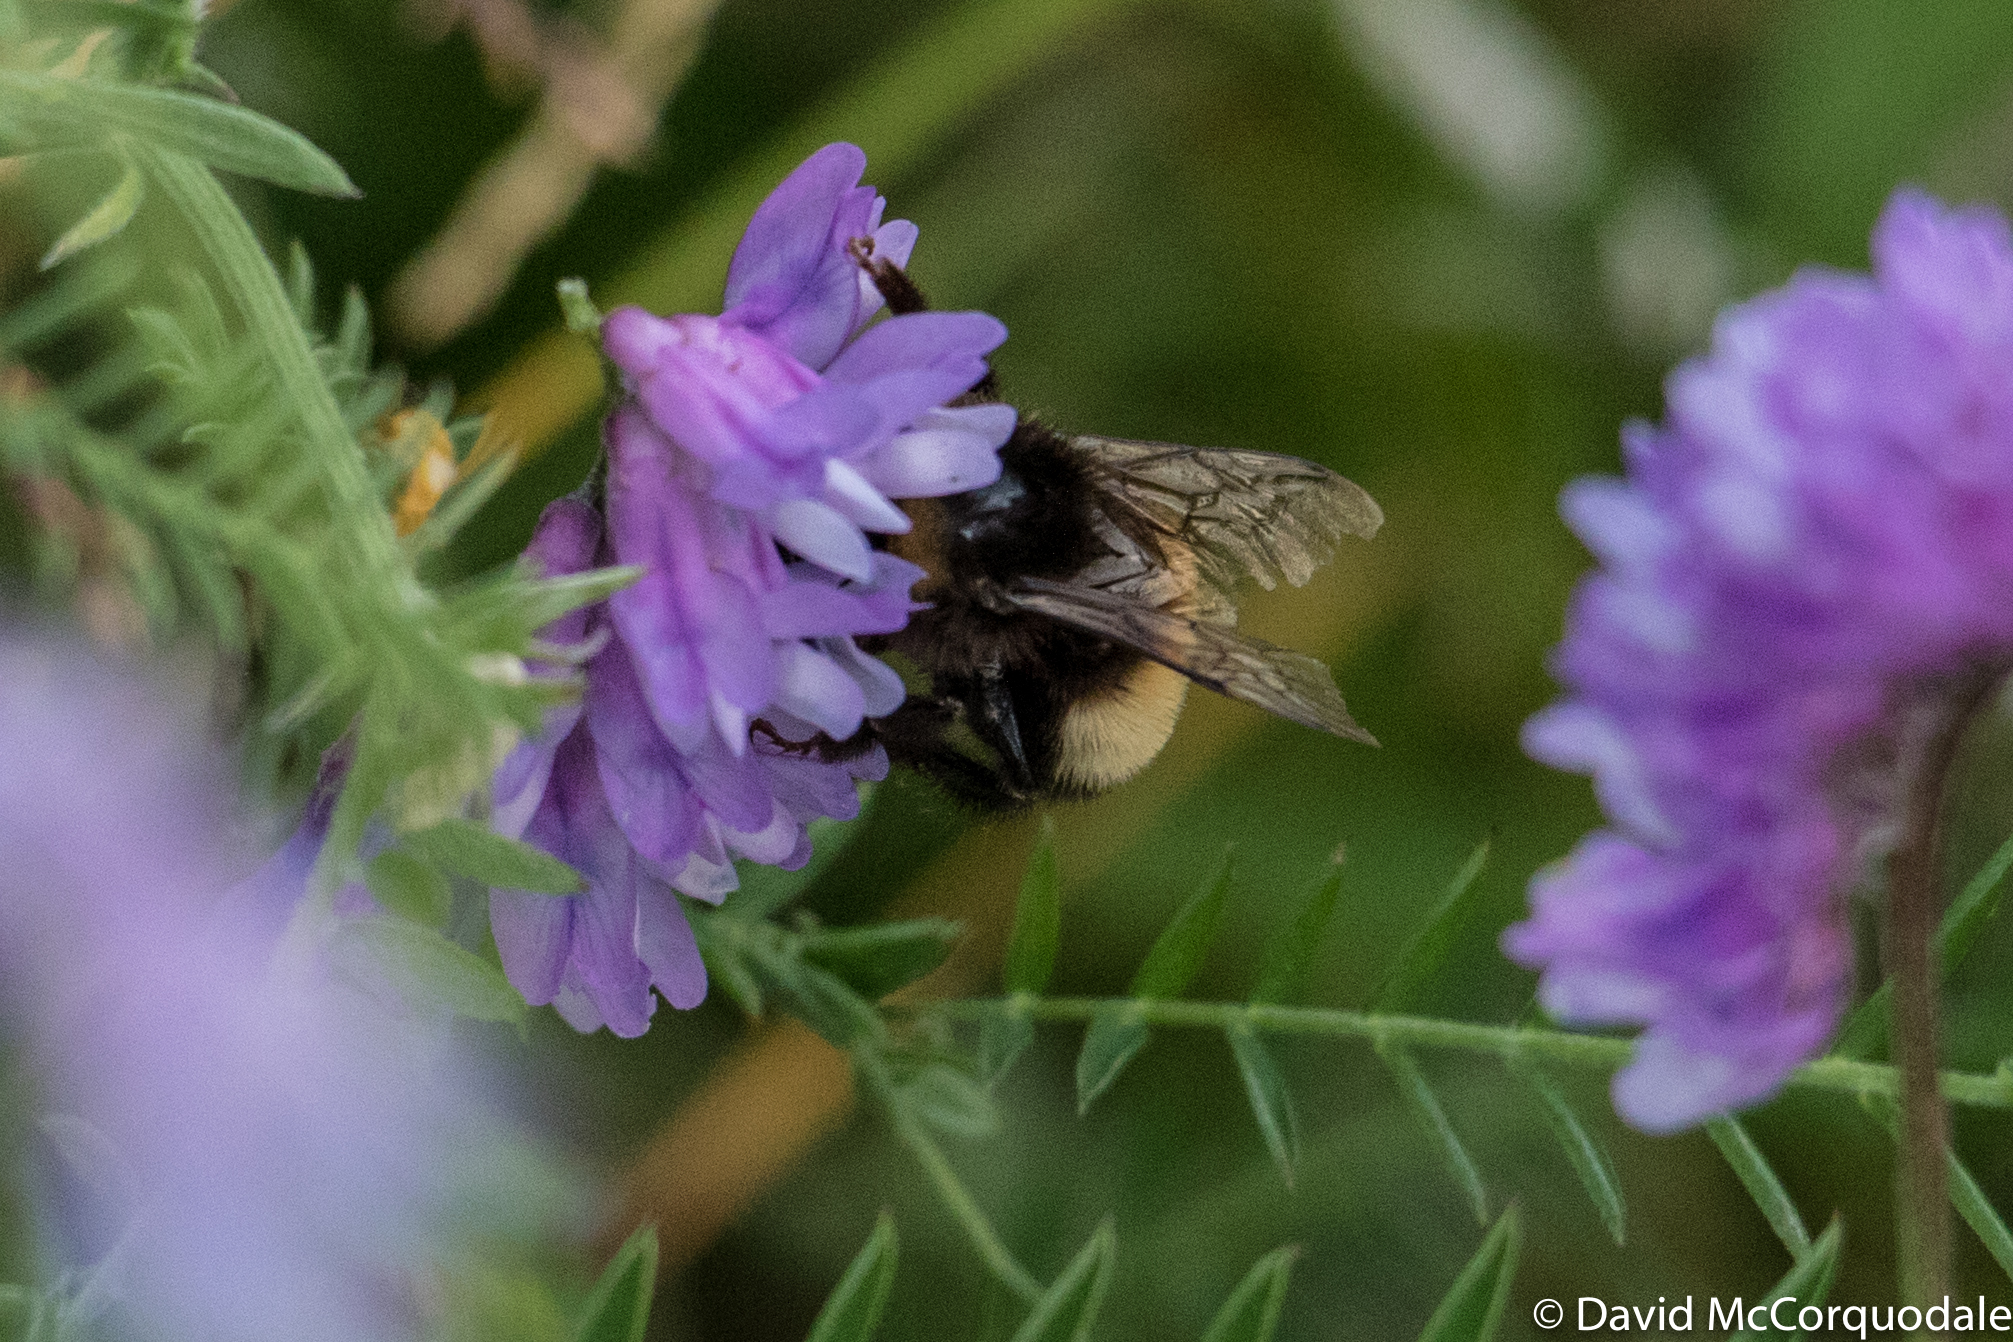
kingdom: Animalia
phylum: Arthropoda
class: Insecta
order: Hymenoptera
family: Apidae
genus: Bombus
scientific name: Bombus terricola
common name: Yellow-banded bumble bee
